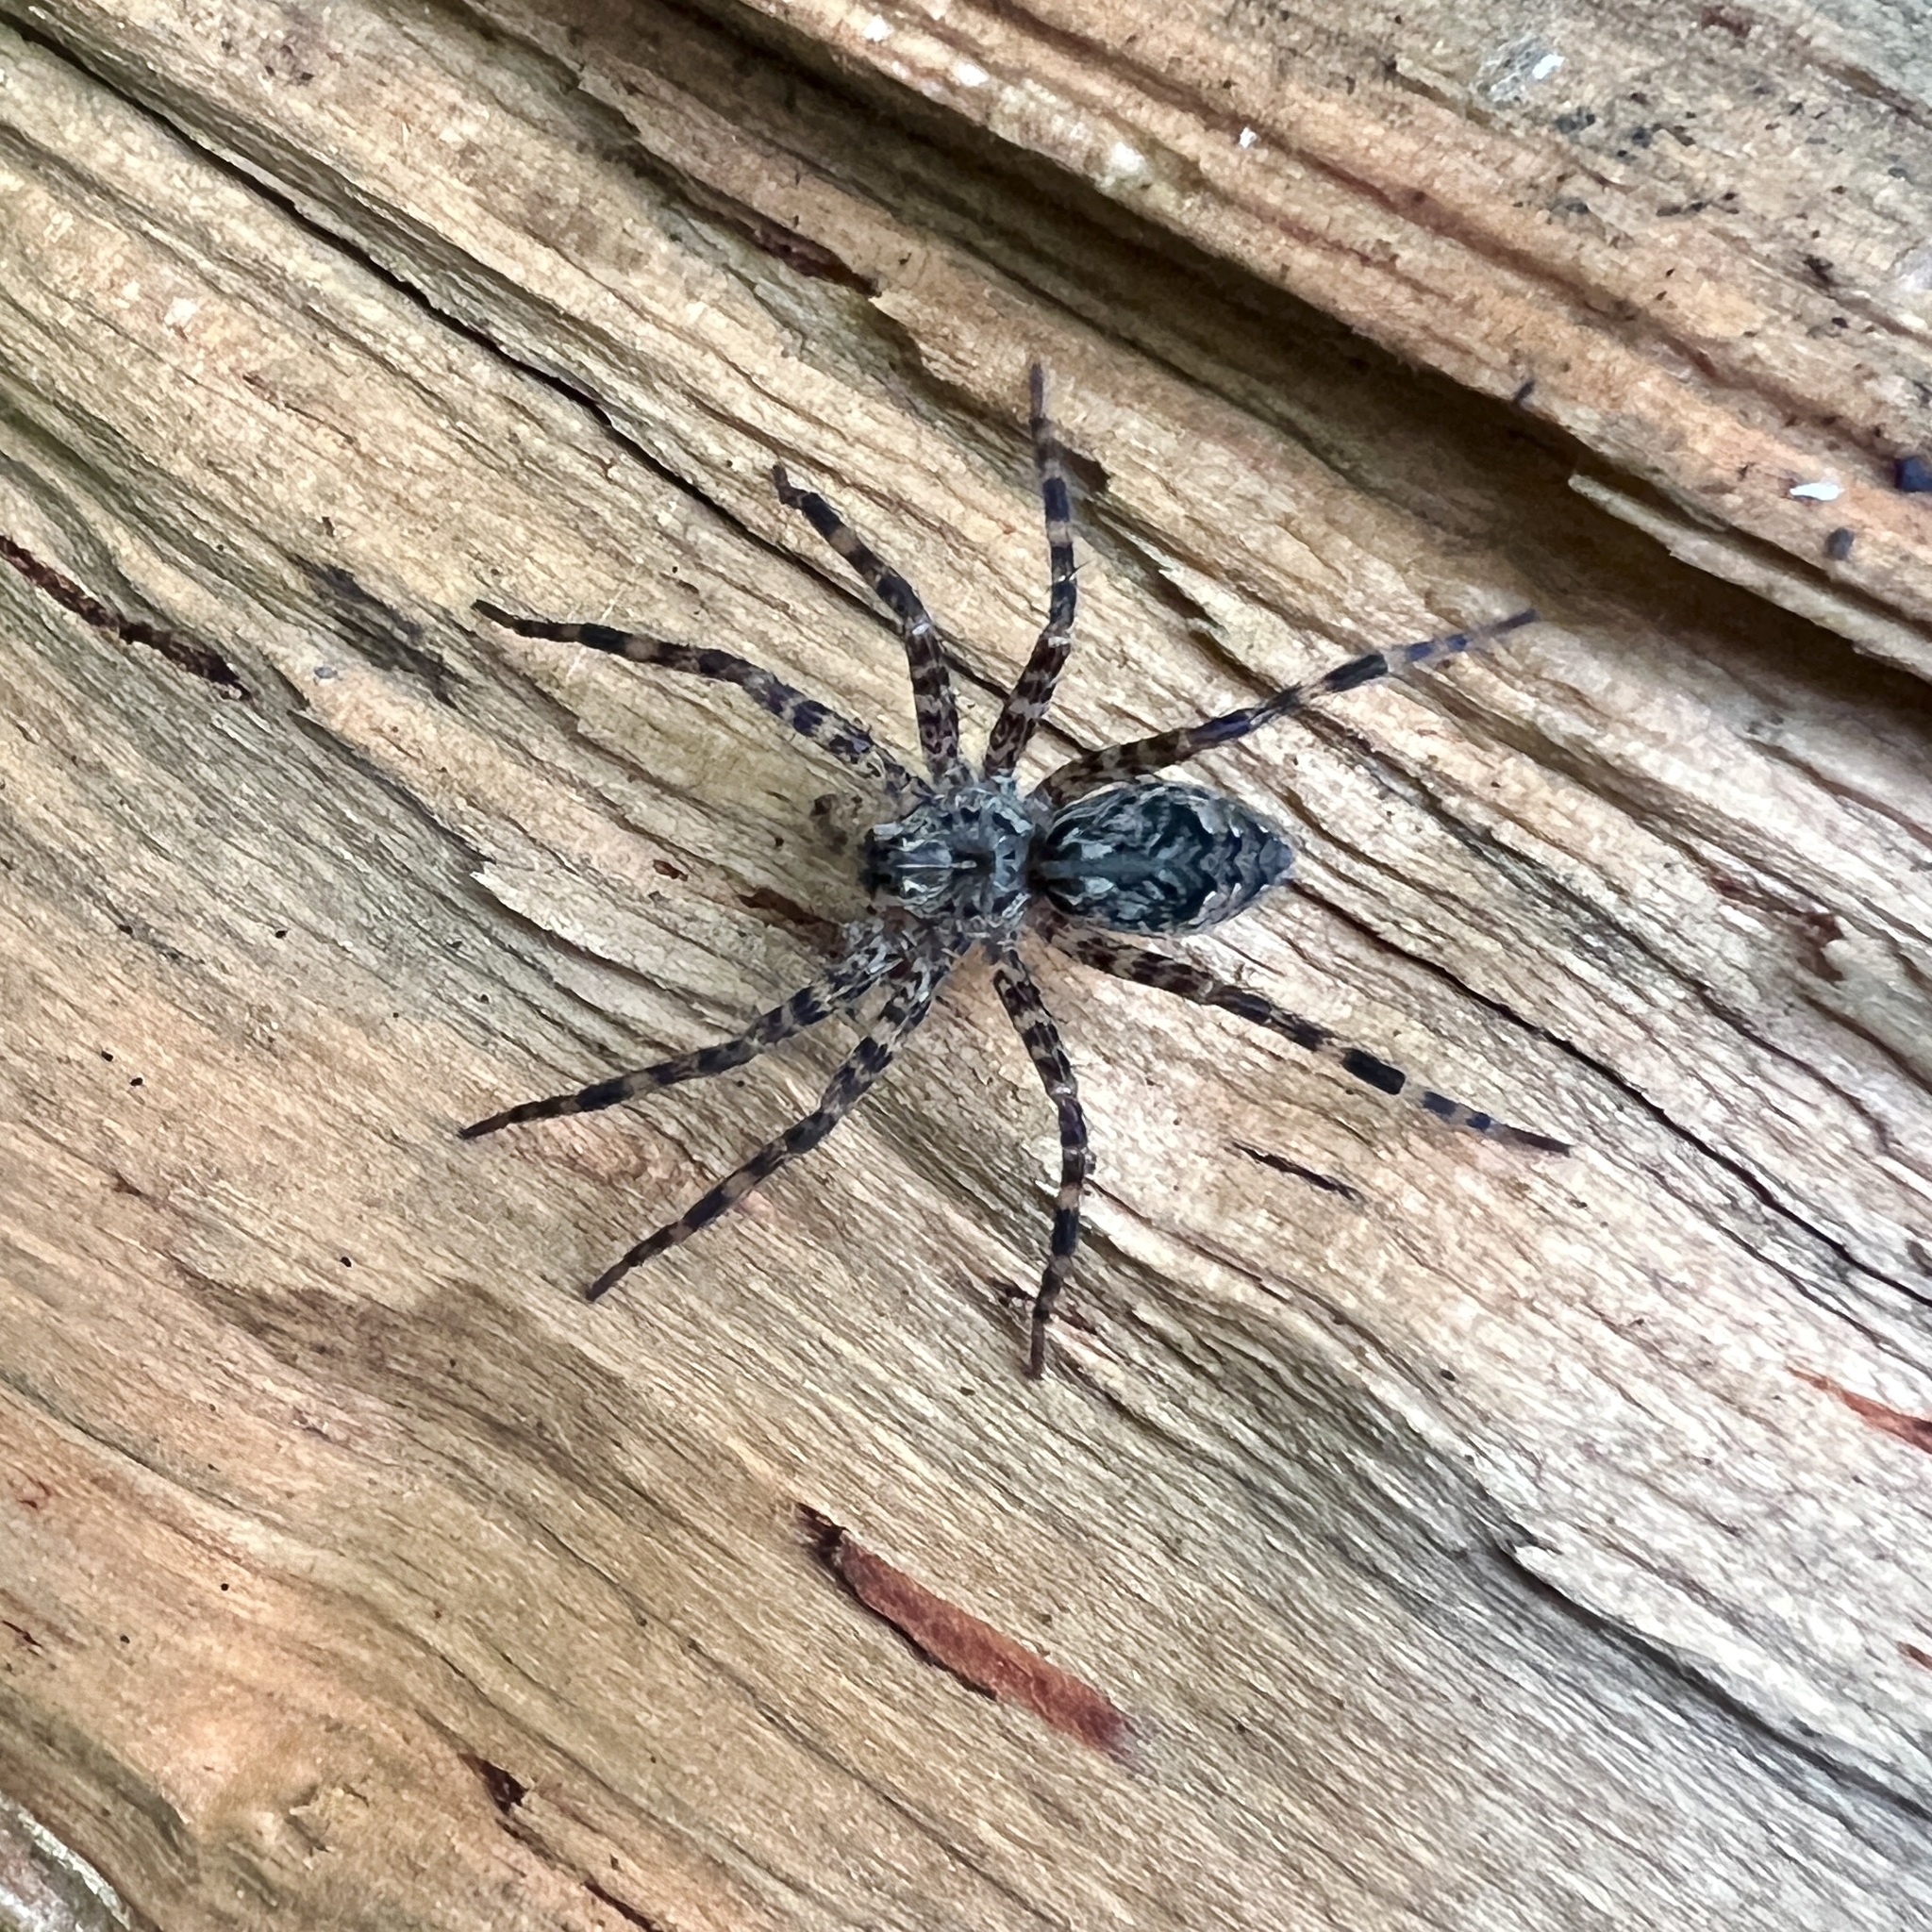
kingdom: Animalia
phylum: Arthropoda
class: Arachnida
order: Araneae
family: Pisauridae
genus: Dolomedes
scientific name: Dolomedes tenebrosus
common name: Dark fishing spider
